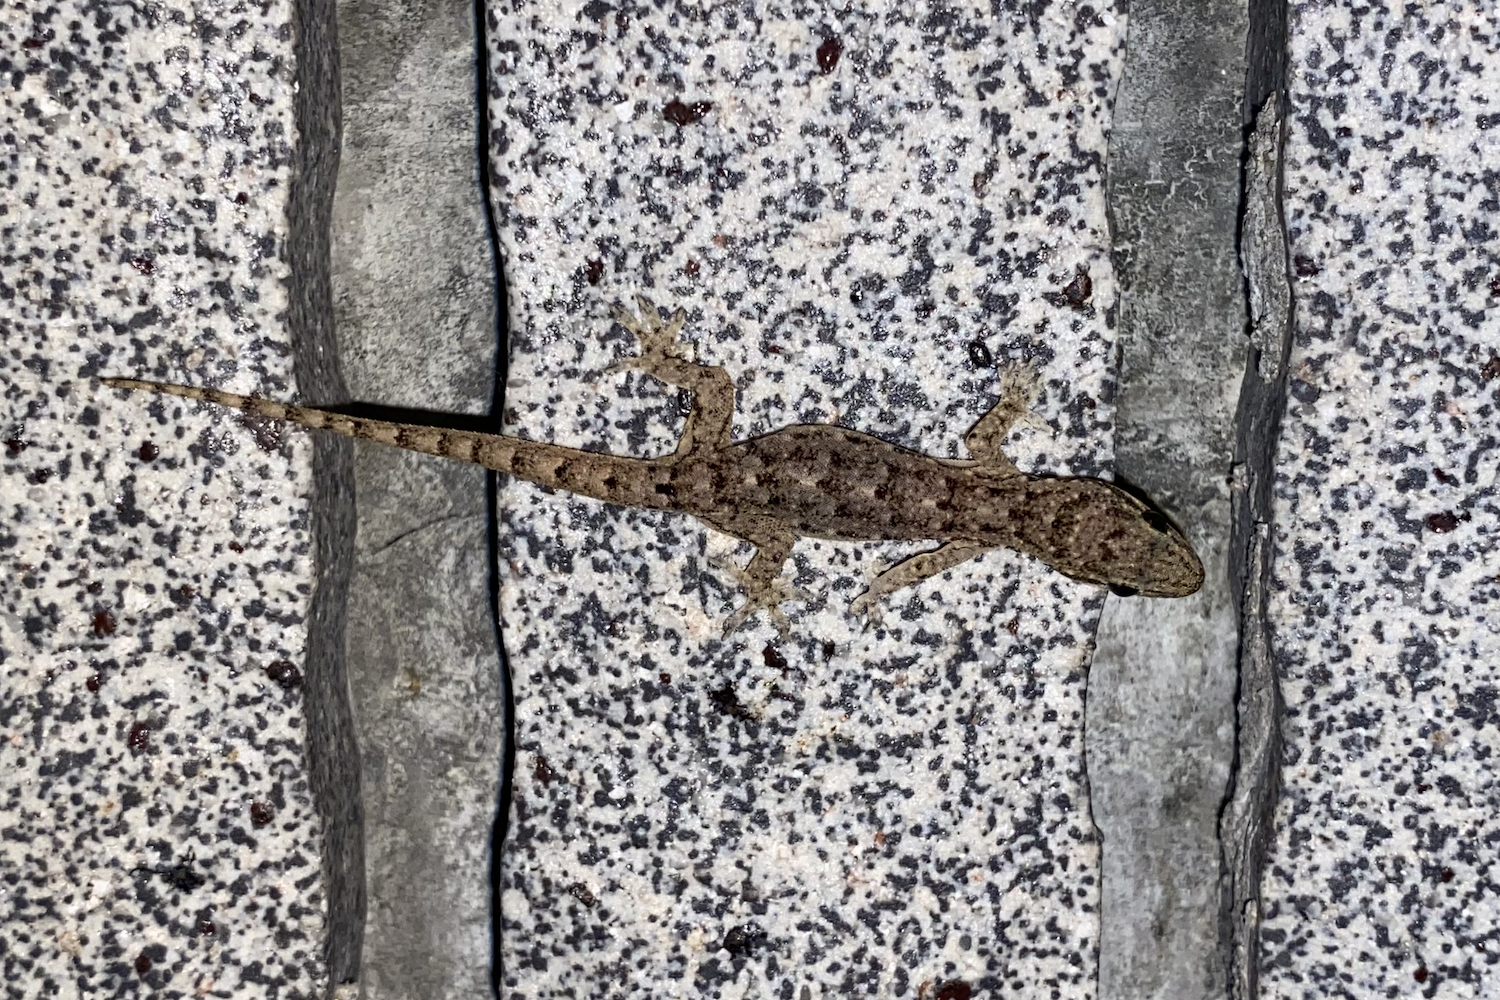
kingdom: Animalia
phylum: Chordata
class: Squamata
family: Gekkonidae
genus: Hemidactylus
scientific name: Hemidactylus bowringii
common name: Oriental leaf-toed gecko
